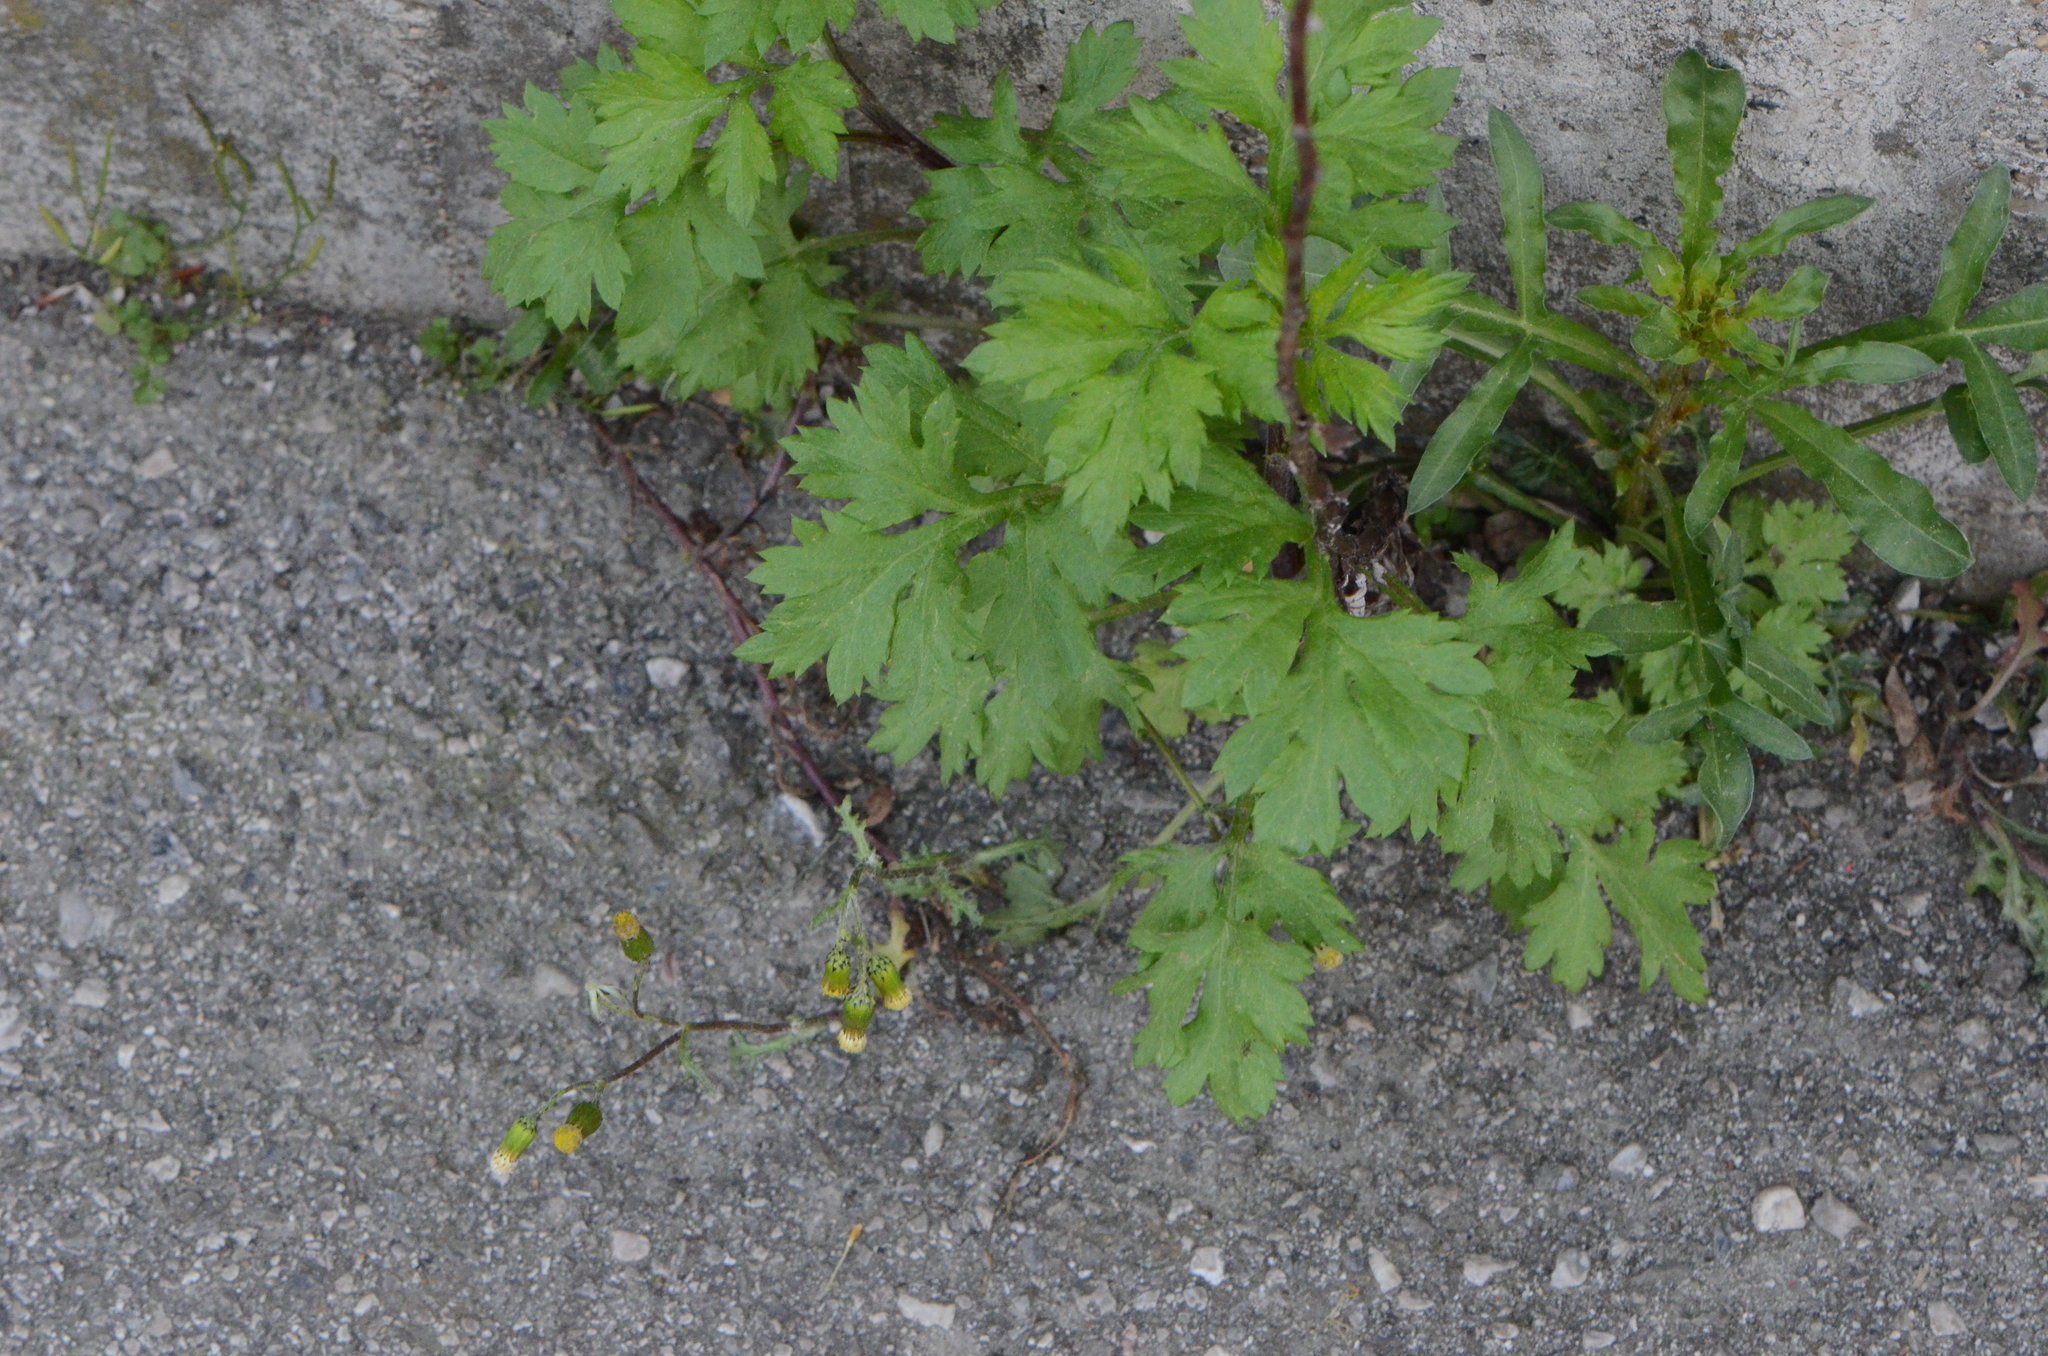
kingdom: Plantae
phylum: Tracheophyta
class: Magnoliopsida
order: Asterales
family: Asteraceae
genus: Artemisia
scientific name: Artemisia vulgaris
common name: Mugwort
